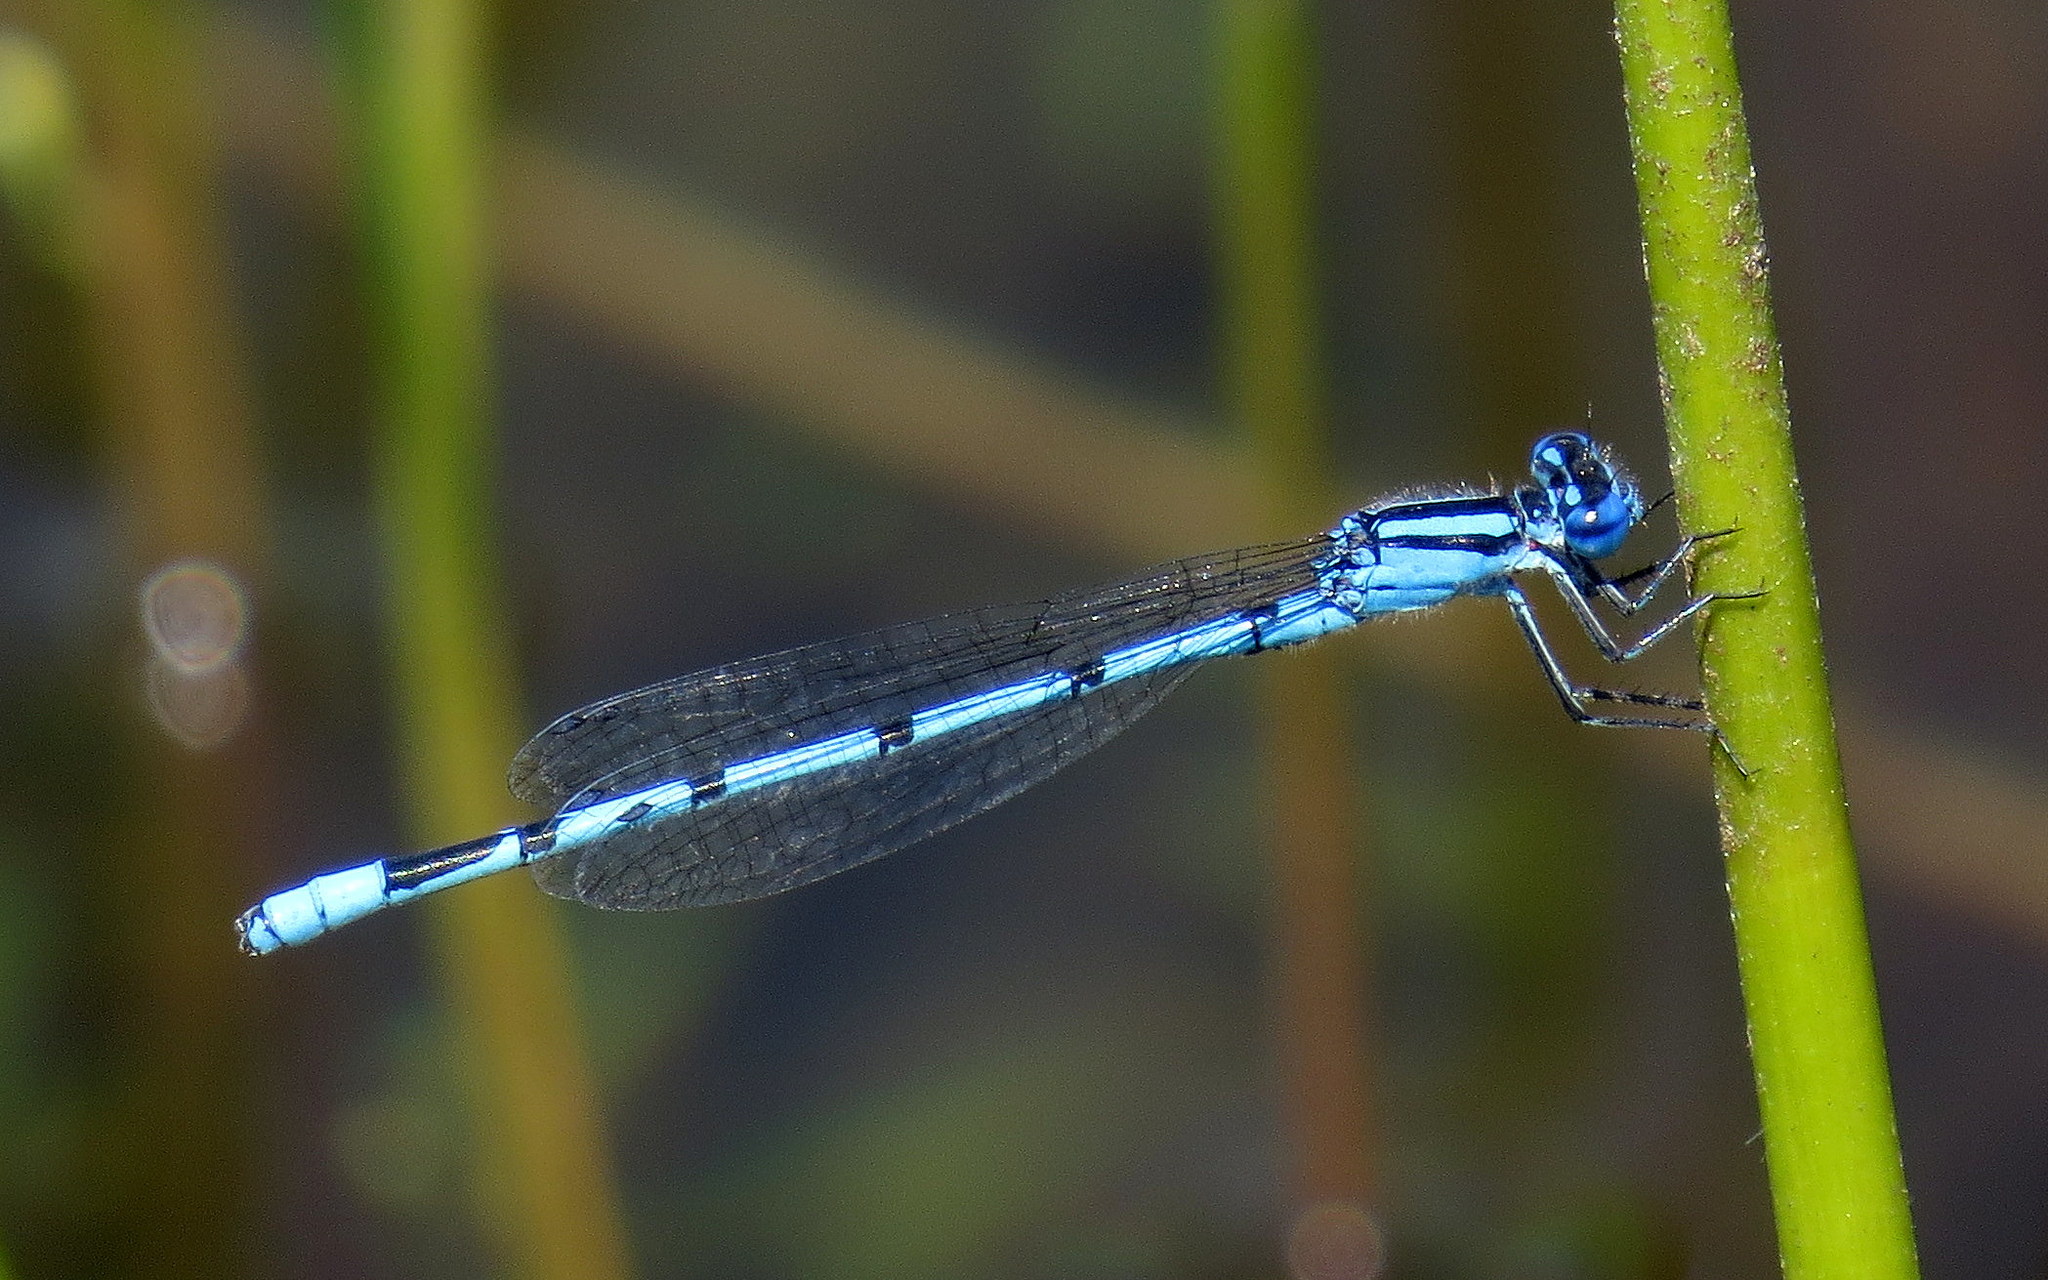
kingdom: Animalia
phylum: Arthropoda
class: Insecta
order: Odonata
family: Coenagrionidae
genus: Enallagma
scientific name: Enallagma doubledayi
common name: Atlantic bluet
